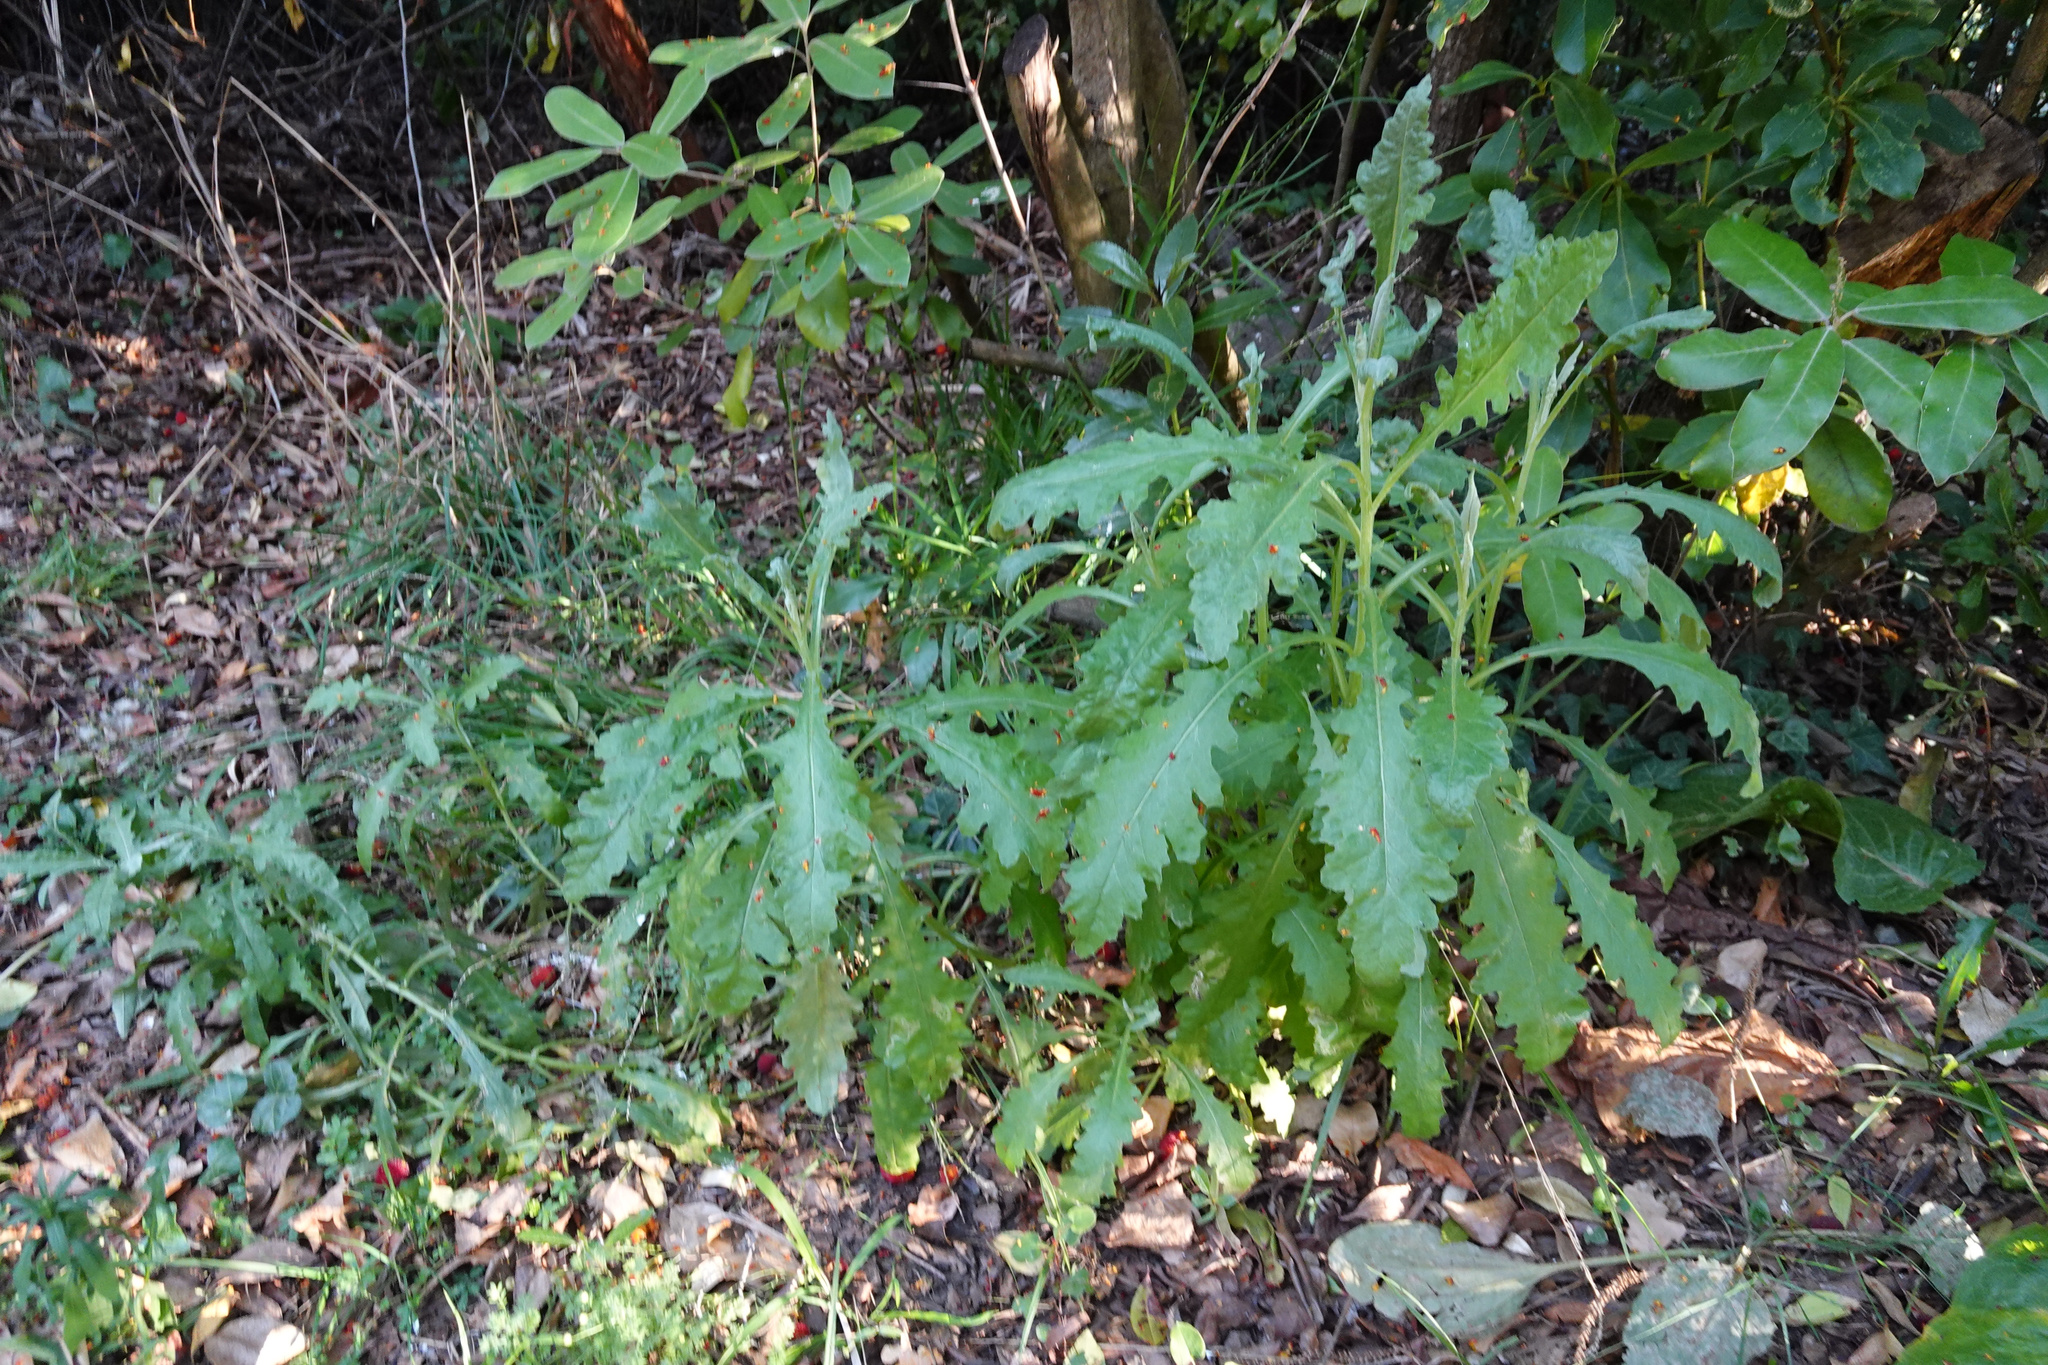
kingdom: Plantae
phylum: Tracheophyta
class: Magnoliopsida
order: Asterales
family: Asteraceae
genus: Senecio
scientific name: Senecio glomeratus
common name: Cutleaf burnweed
